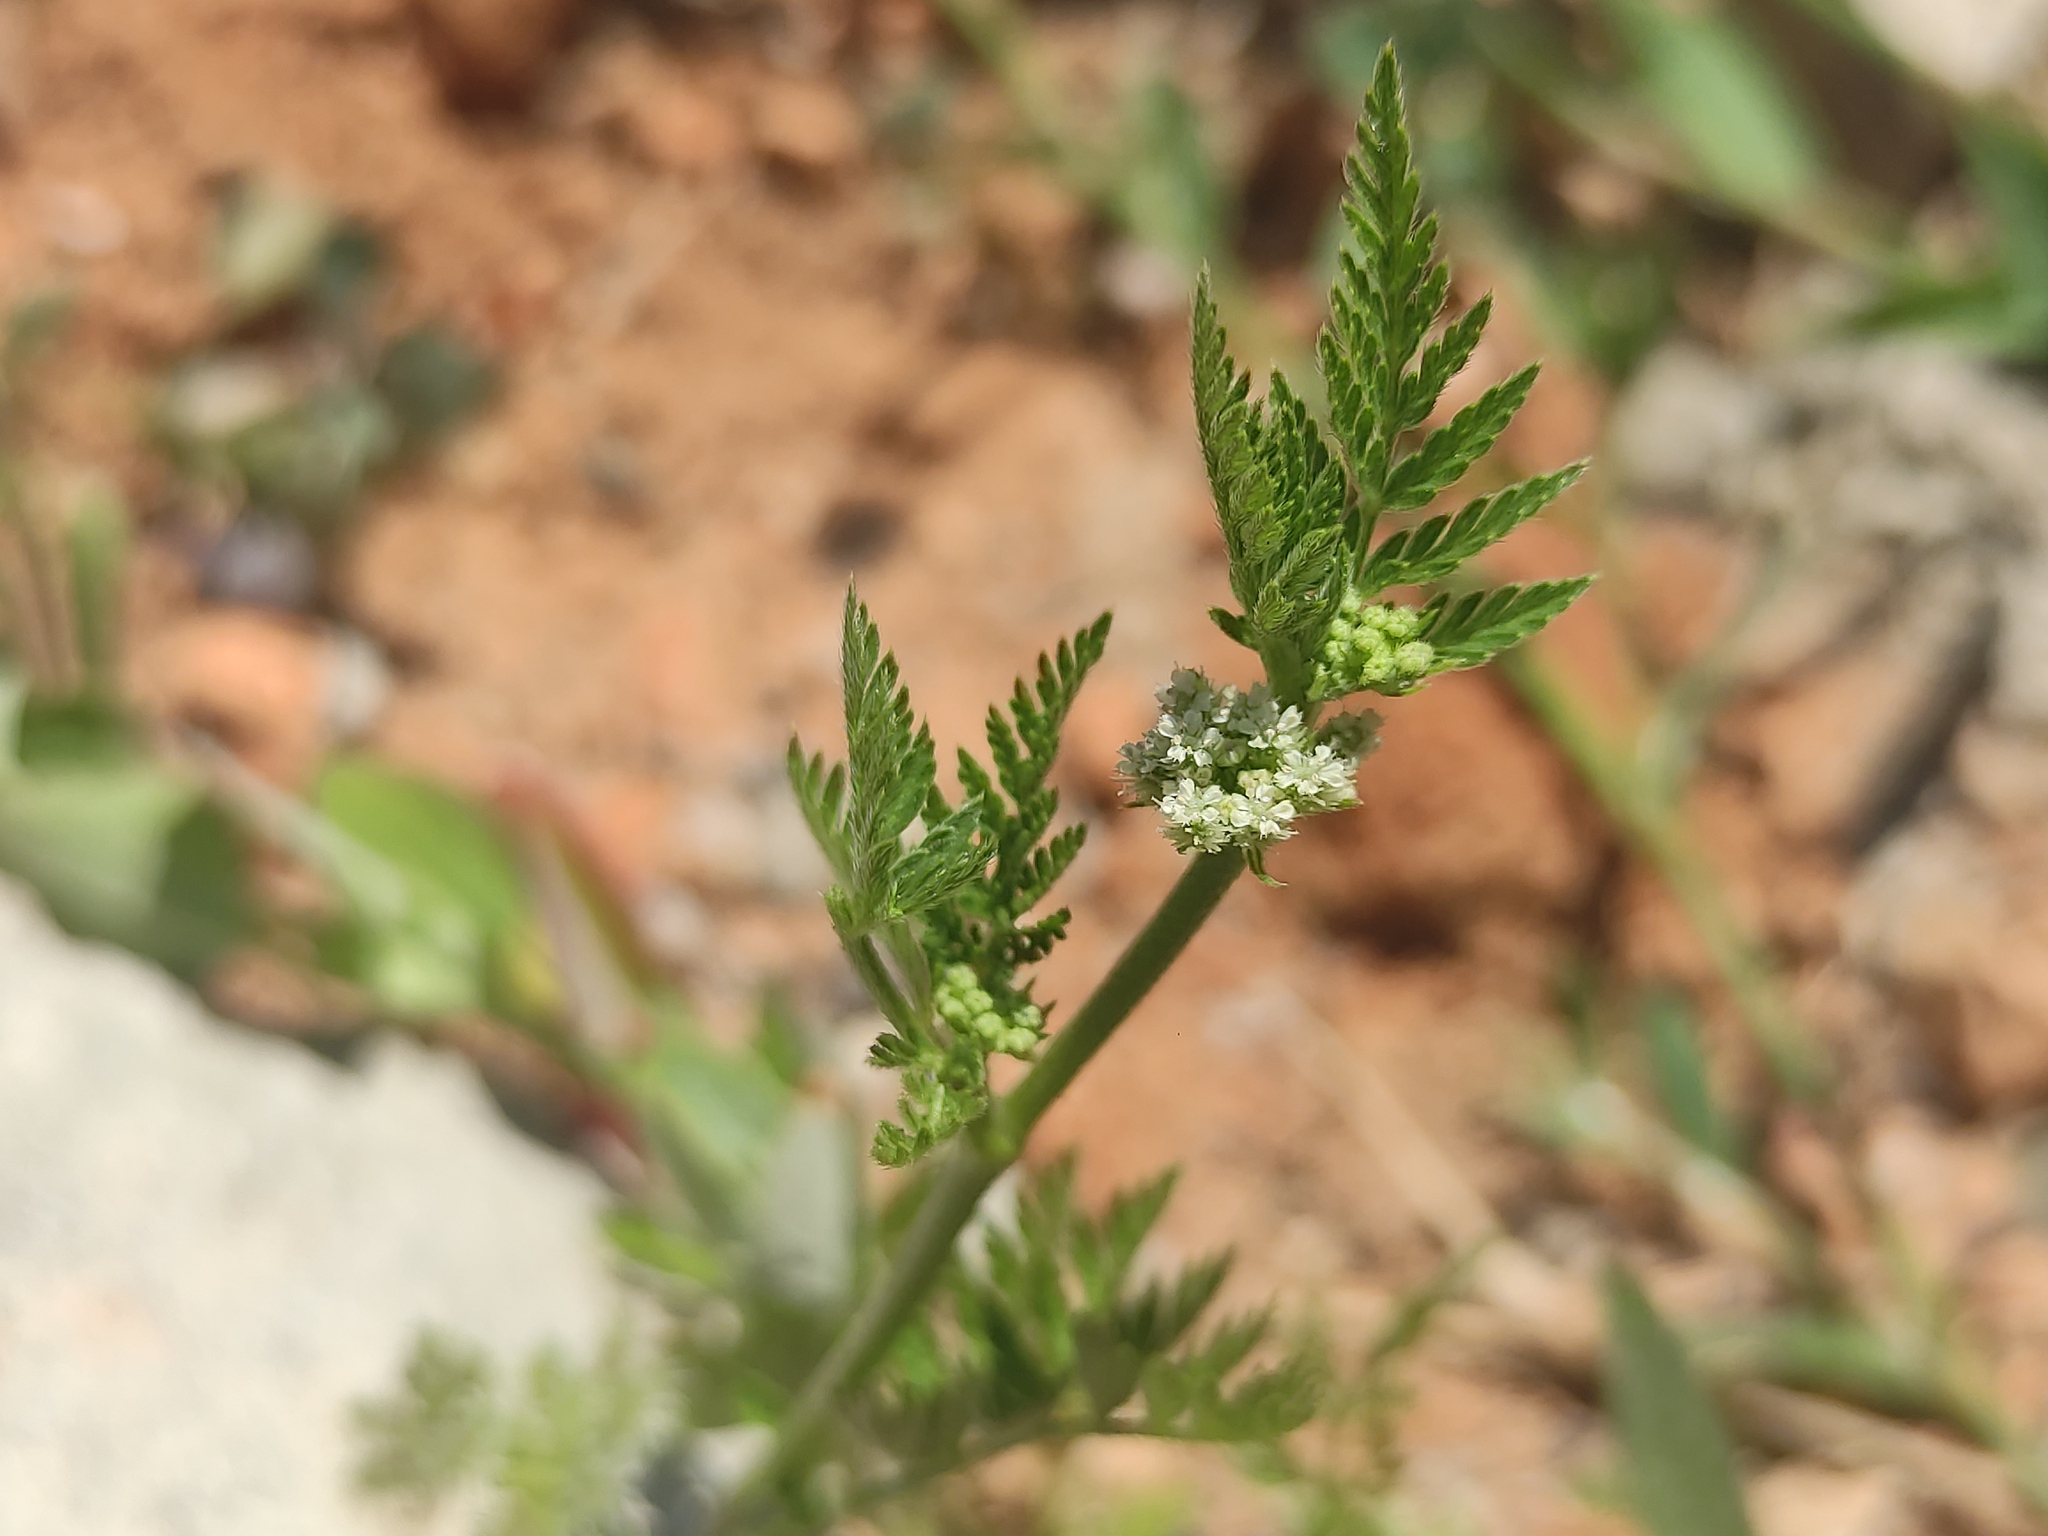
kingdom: Plantae
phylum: Tracheophyta
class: Magnoliopsida
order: Apiales
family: Apiaceae
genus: Torilis
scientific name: Torilis nodosa
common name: Knotted hedge-parsley
